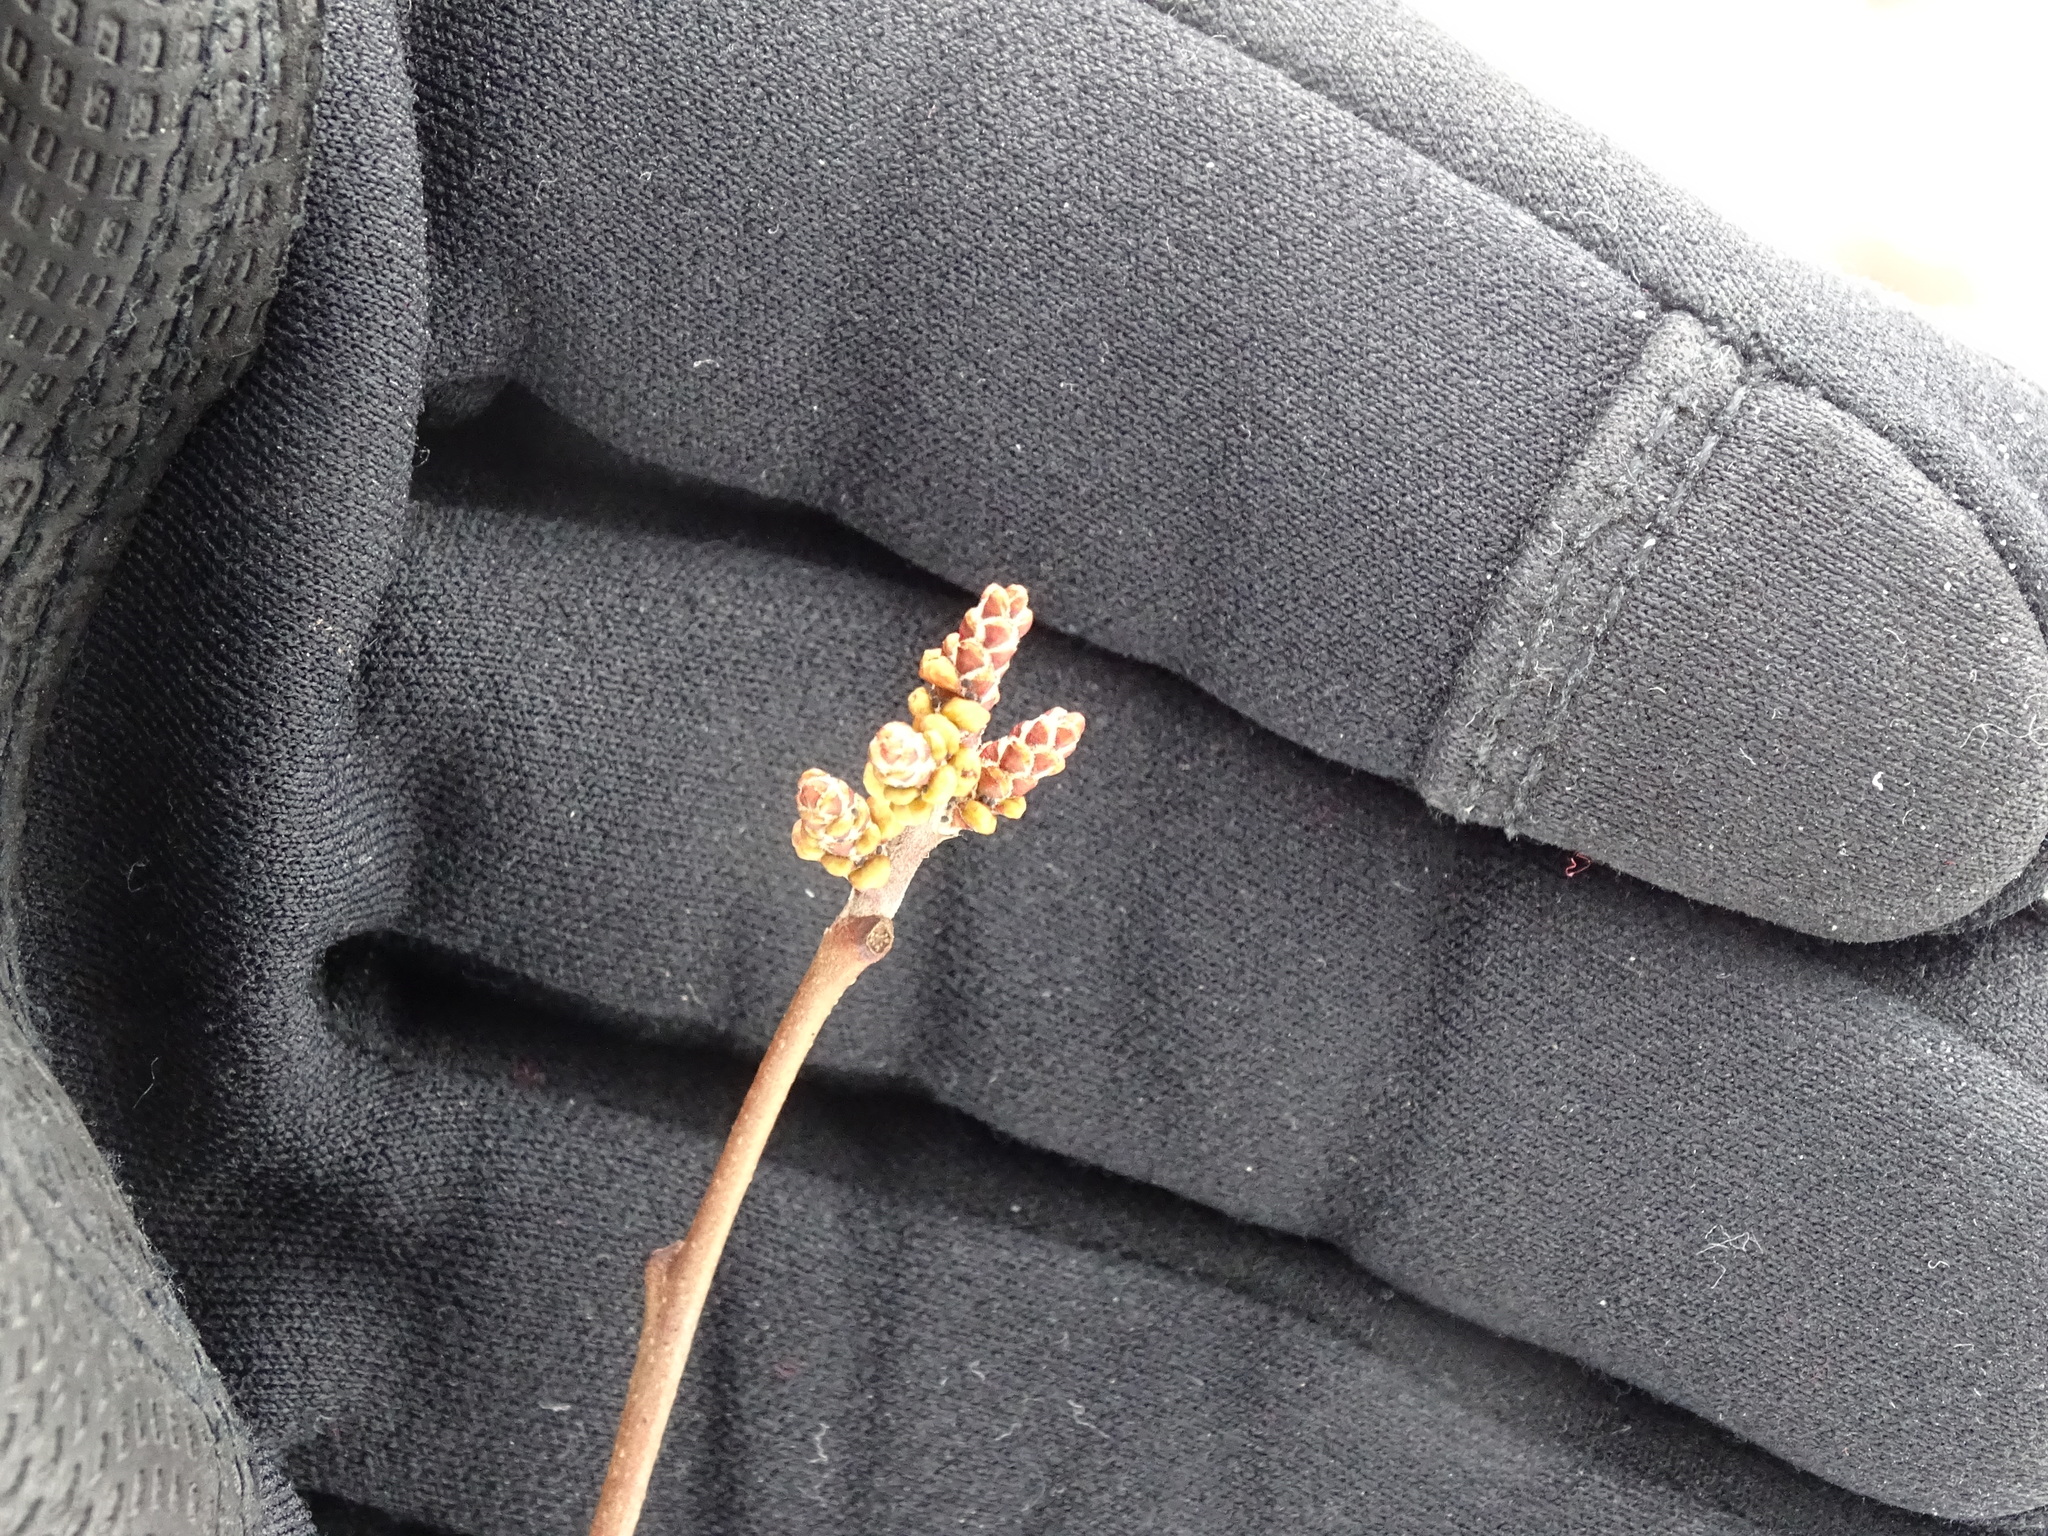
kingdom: Plantae
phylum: Tracheophyta
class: Magnoliopsida
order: Sapindales
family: Anacardiaceae
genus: Rhus
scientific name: Rhus aromatica
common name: Aromatic sumac
